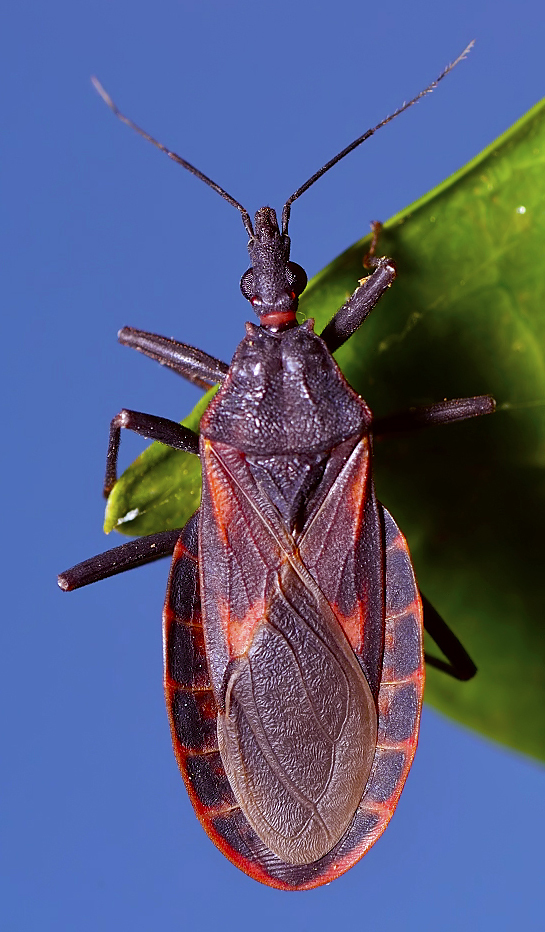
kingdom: Animalia
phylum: Arthropoda
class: Insecta
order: Hemiptera
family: Reduviidae
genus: Triatoma
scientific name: Triatoma rubrofasciata
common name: Assassin bug
